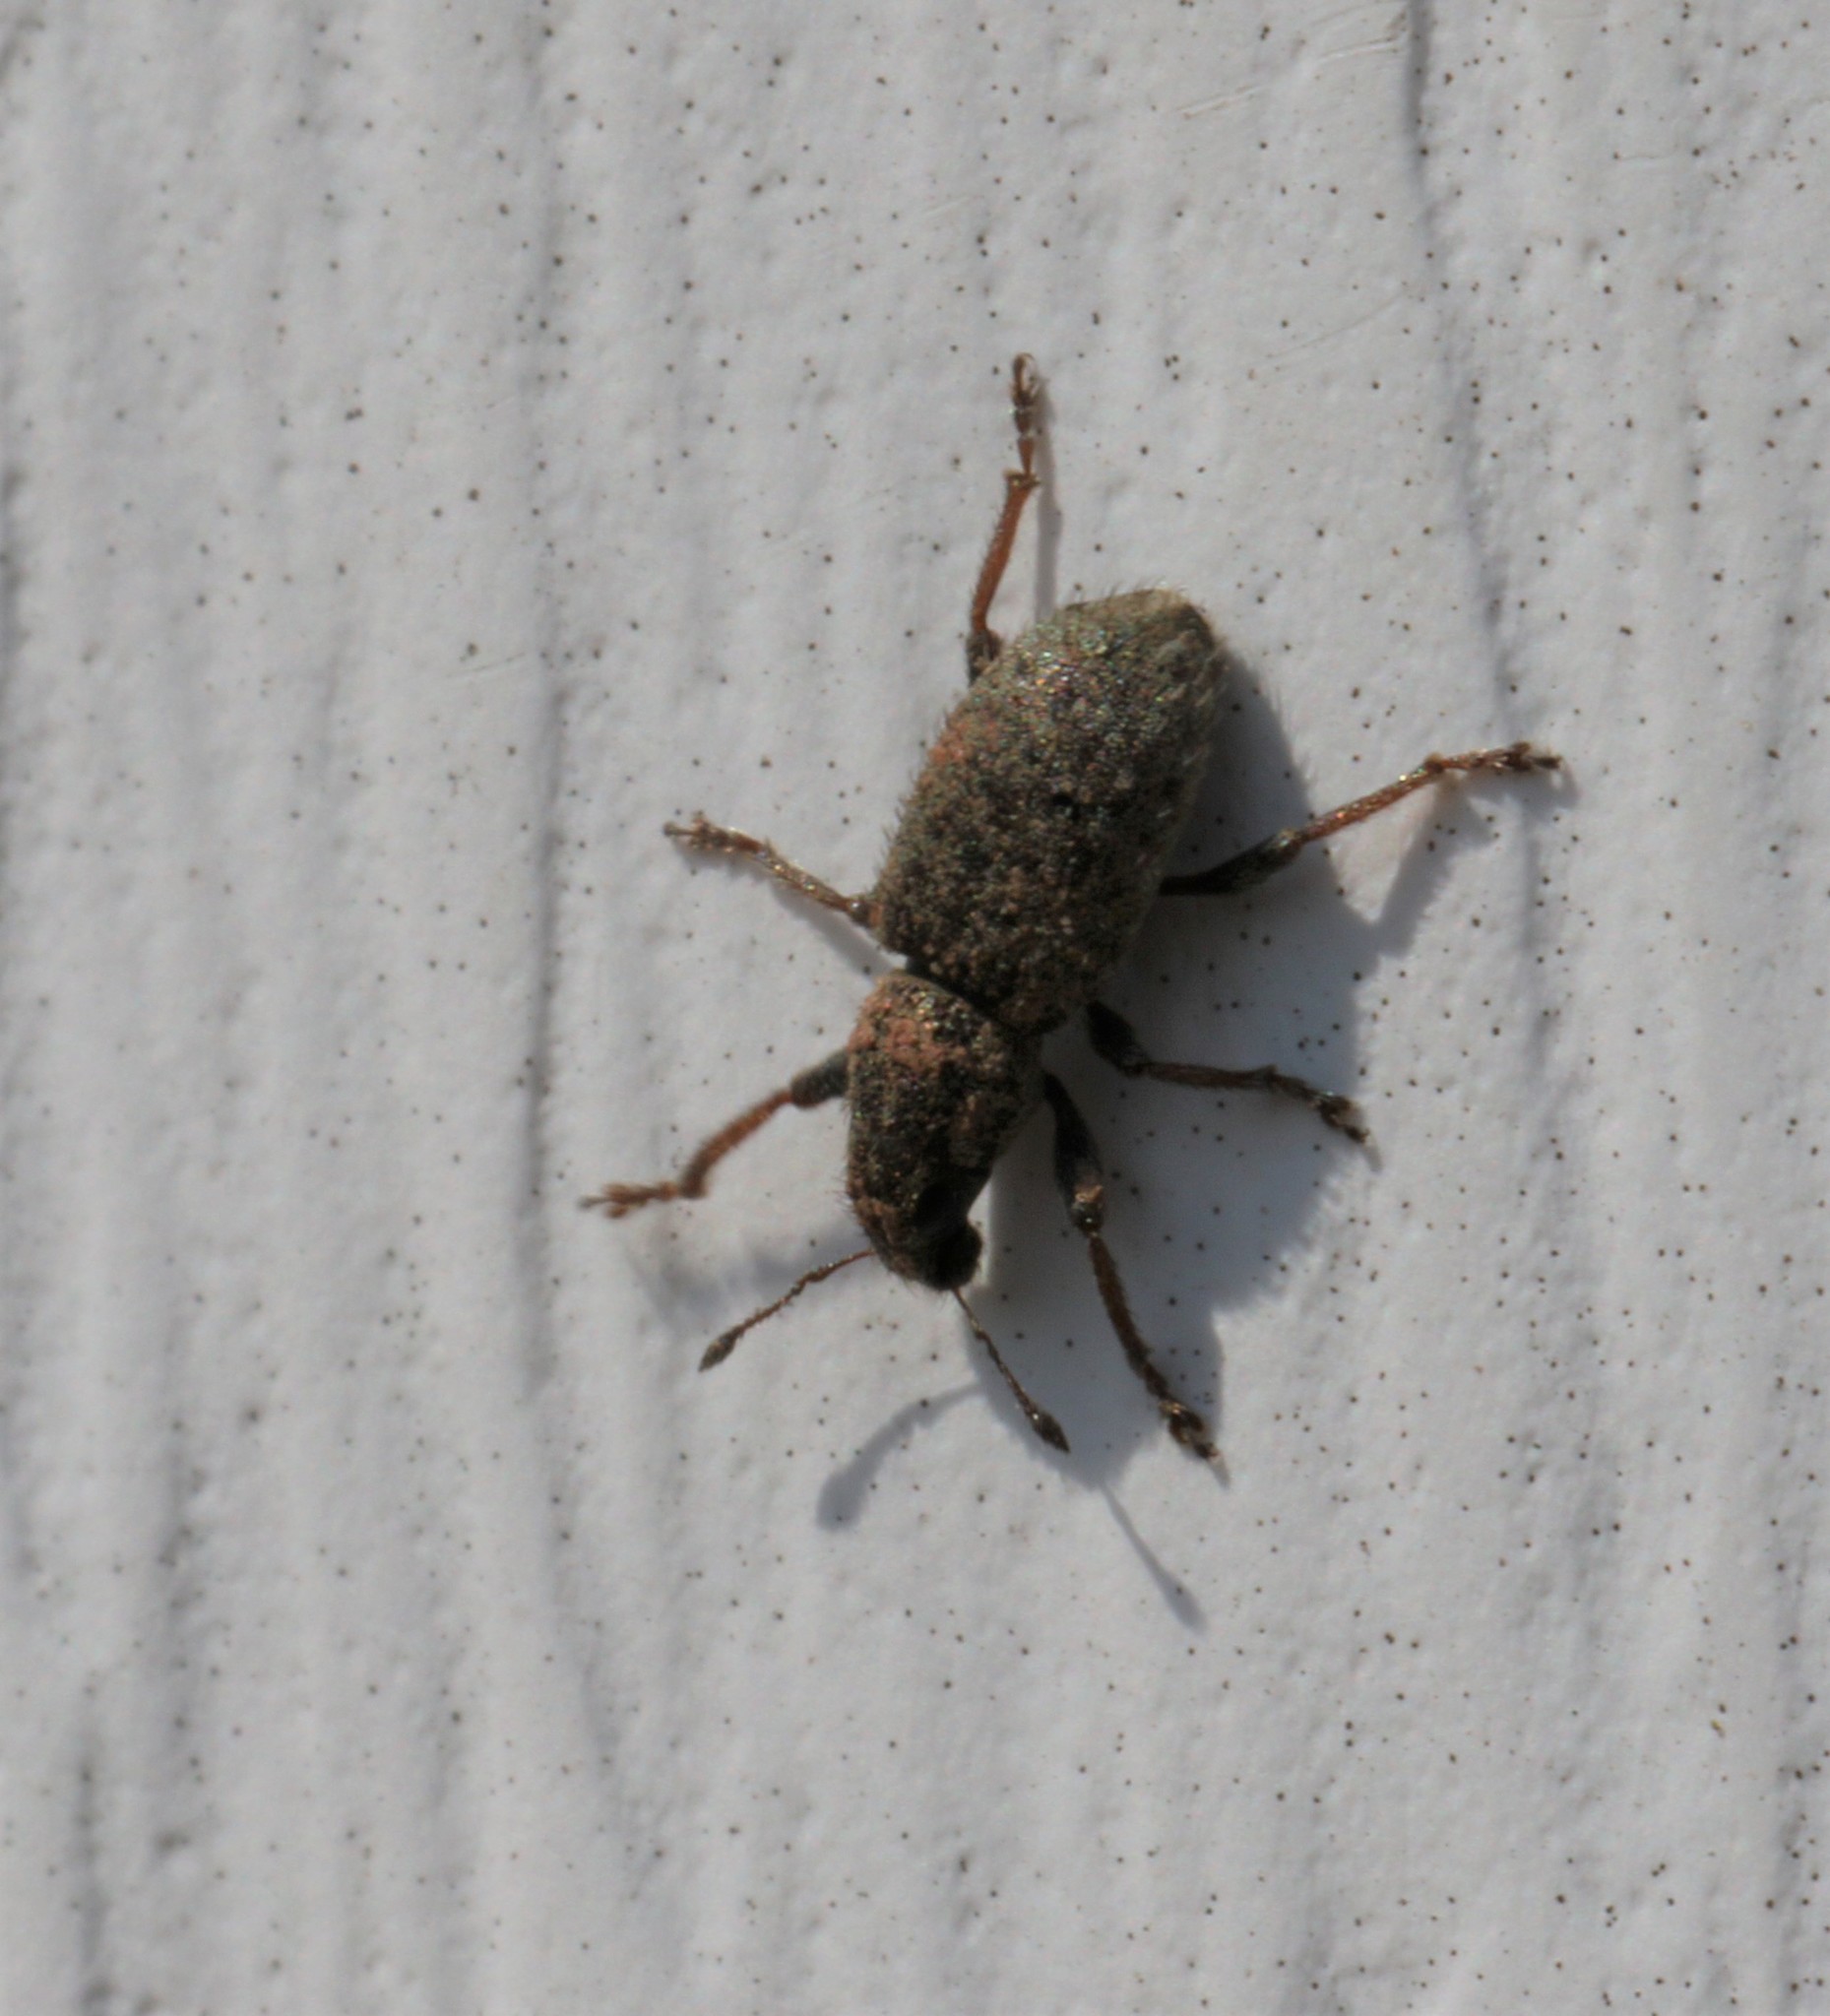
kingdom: Animalia
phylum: Arthropoda
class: Insecta
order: Coleoptera
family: Curculionidae
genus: Sitona
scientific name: Sitona hispidulus
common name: Clover weevil
